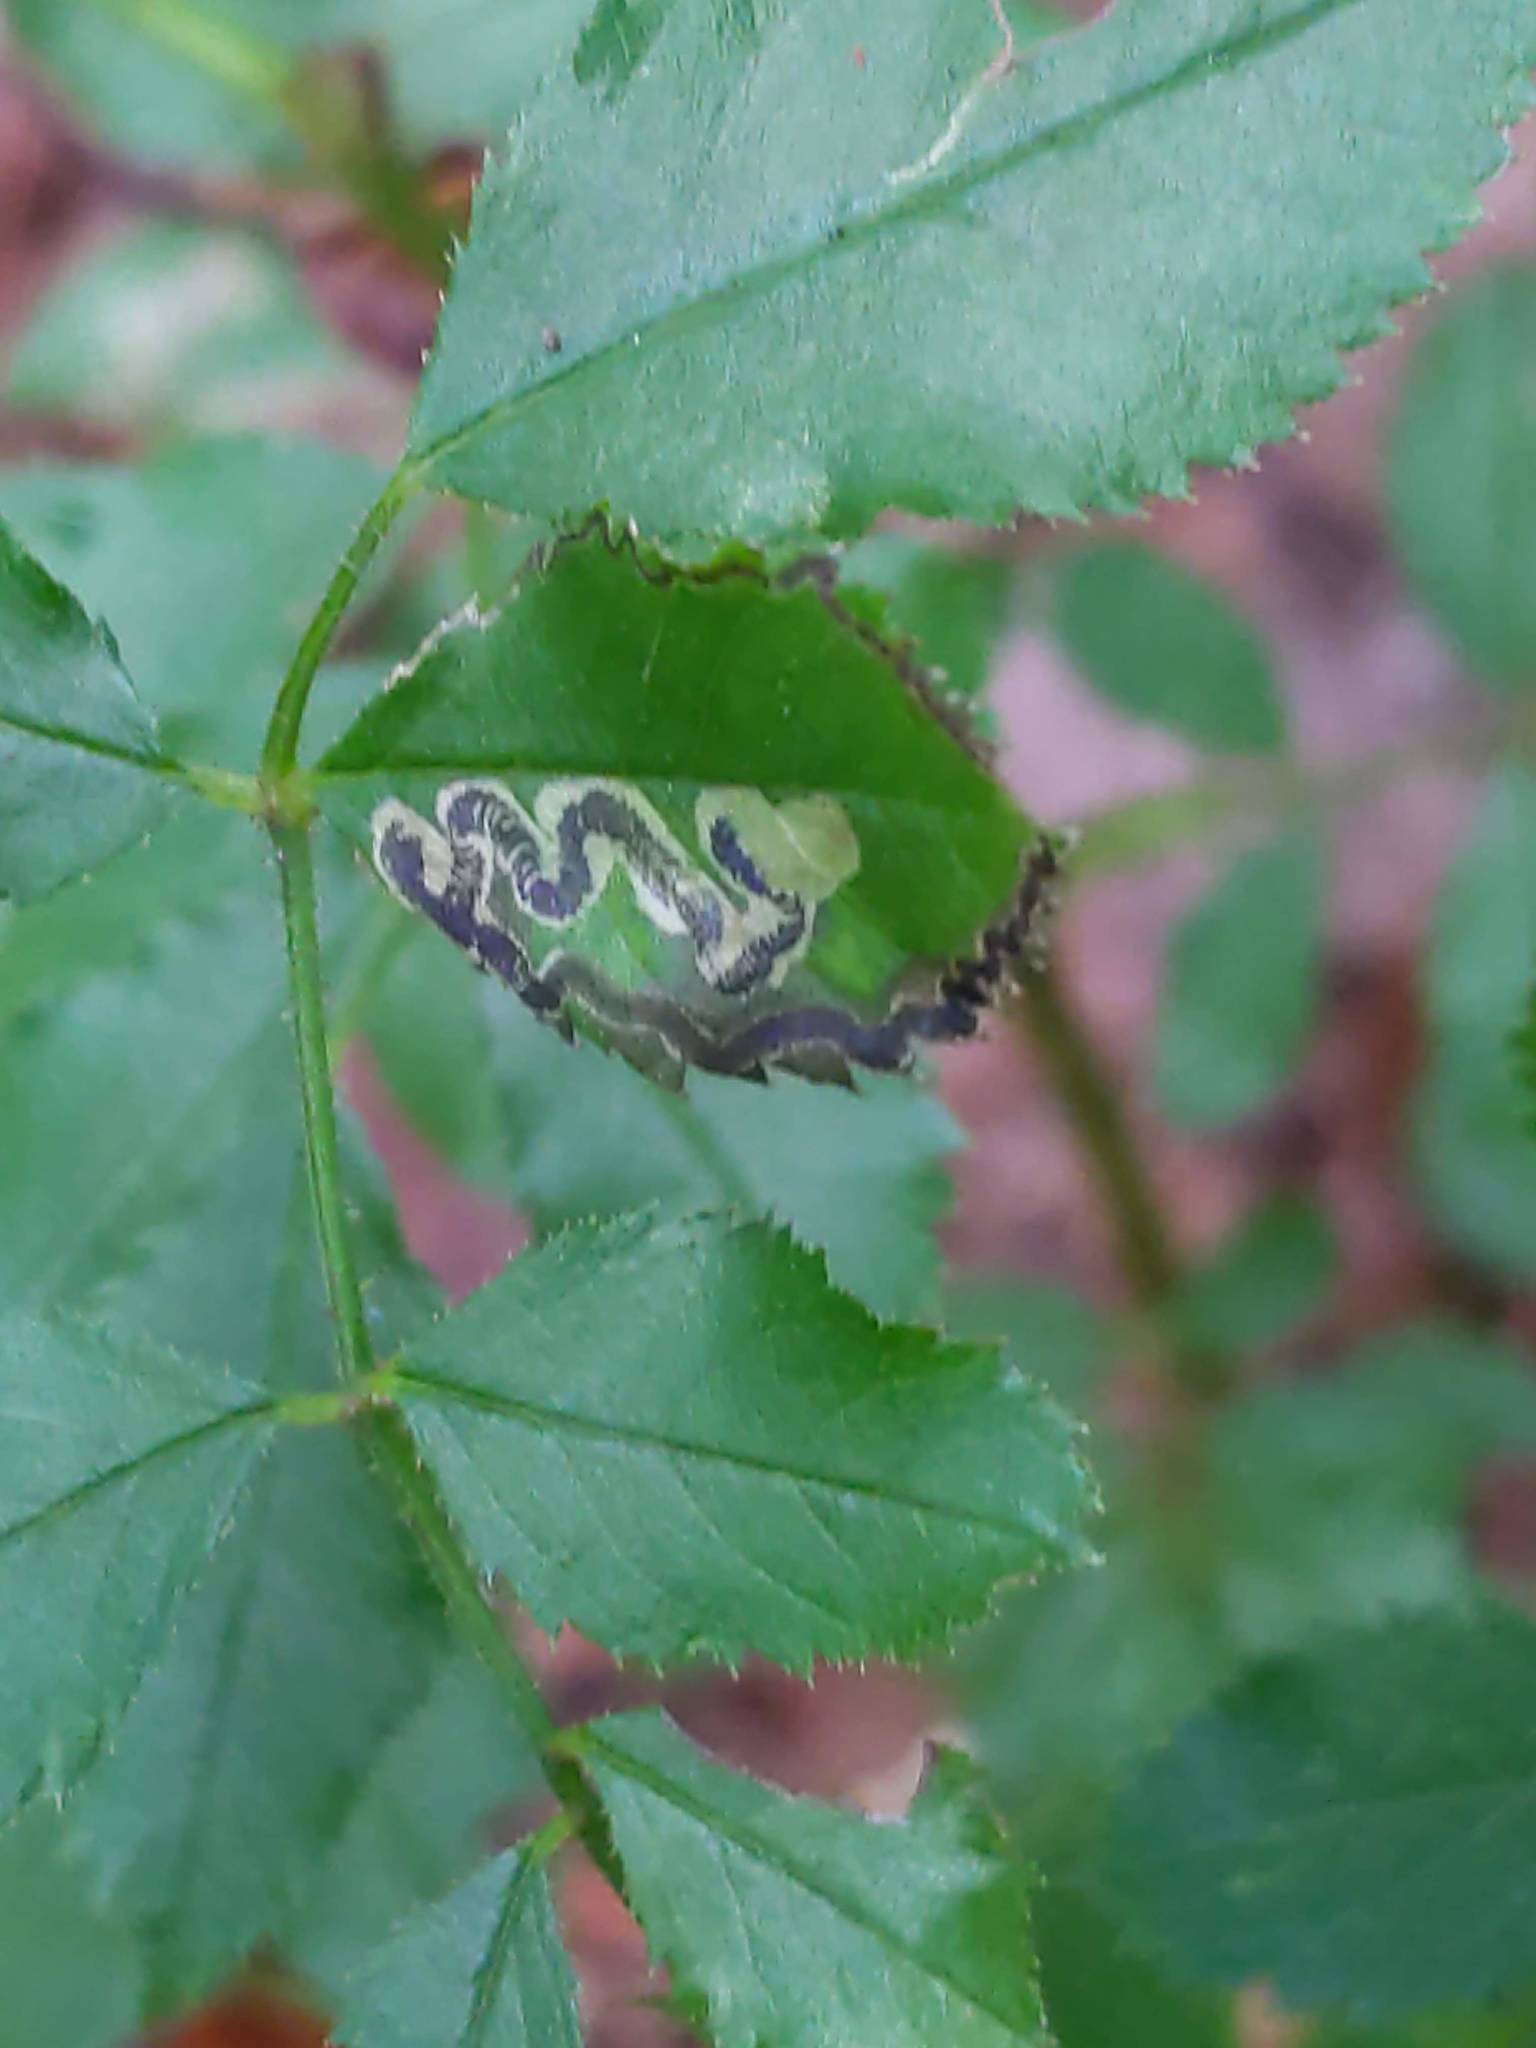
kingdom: Animalia
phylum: Arthropoda
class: Insecta
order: Lepidoptera
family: Nepticulidae
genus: Stigmella
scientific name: Stigmella rosaefoliella
